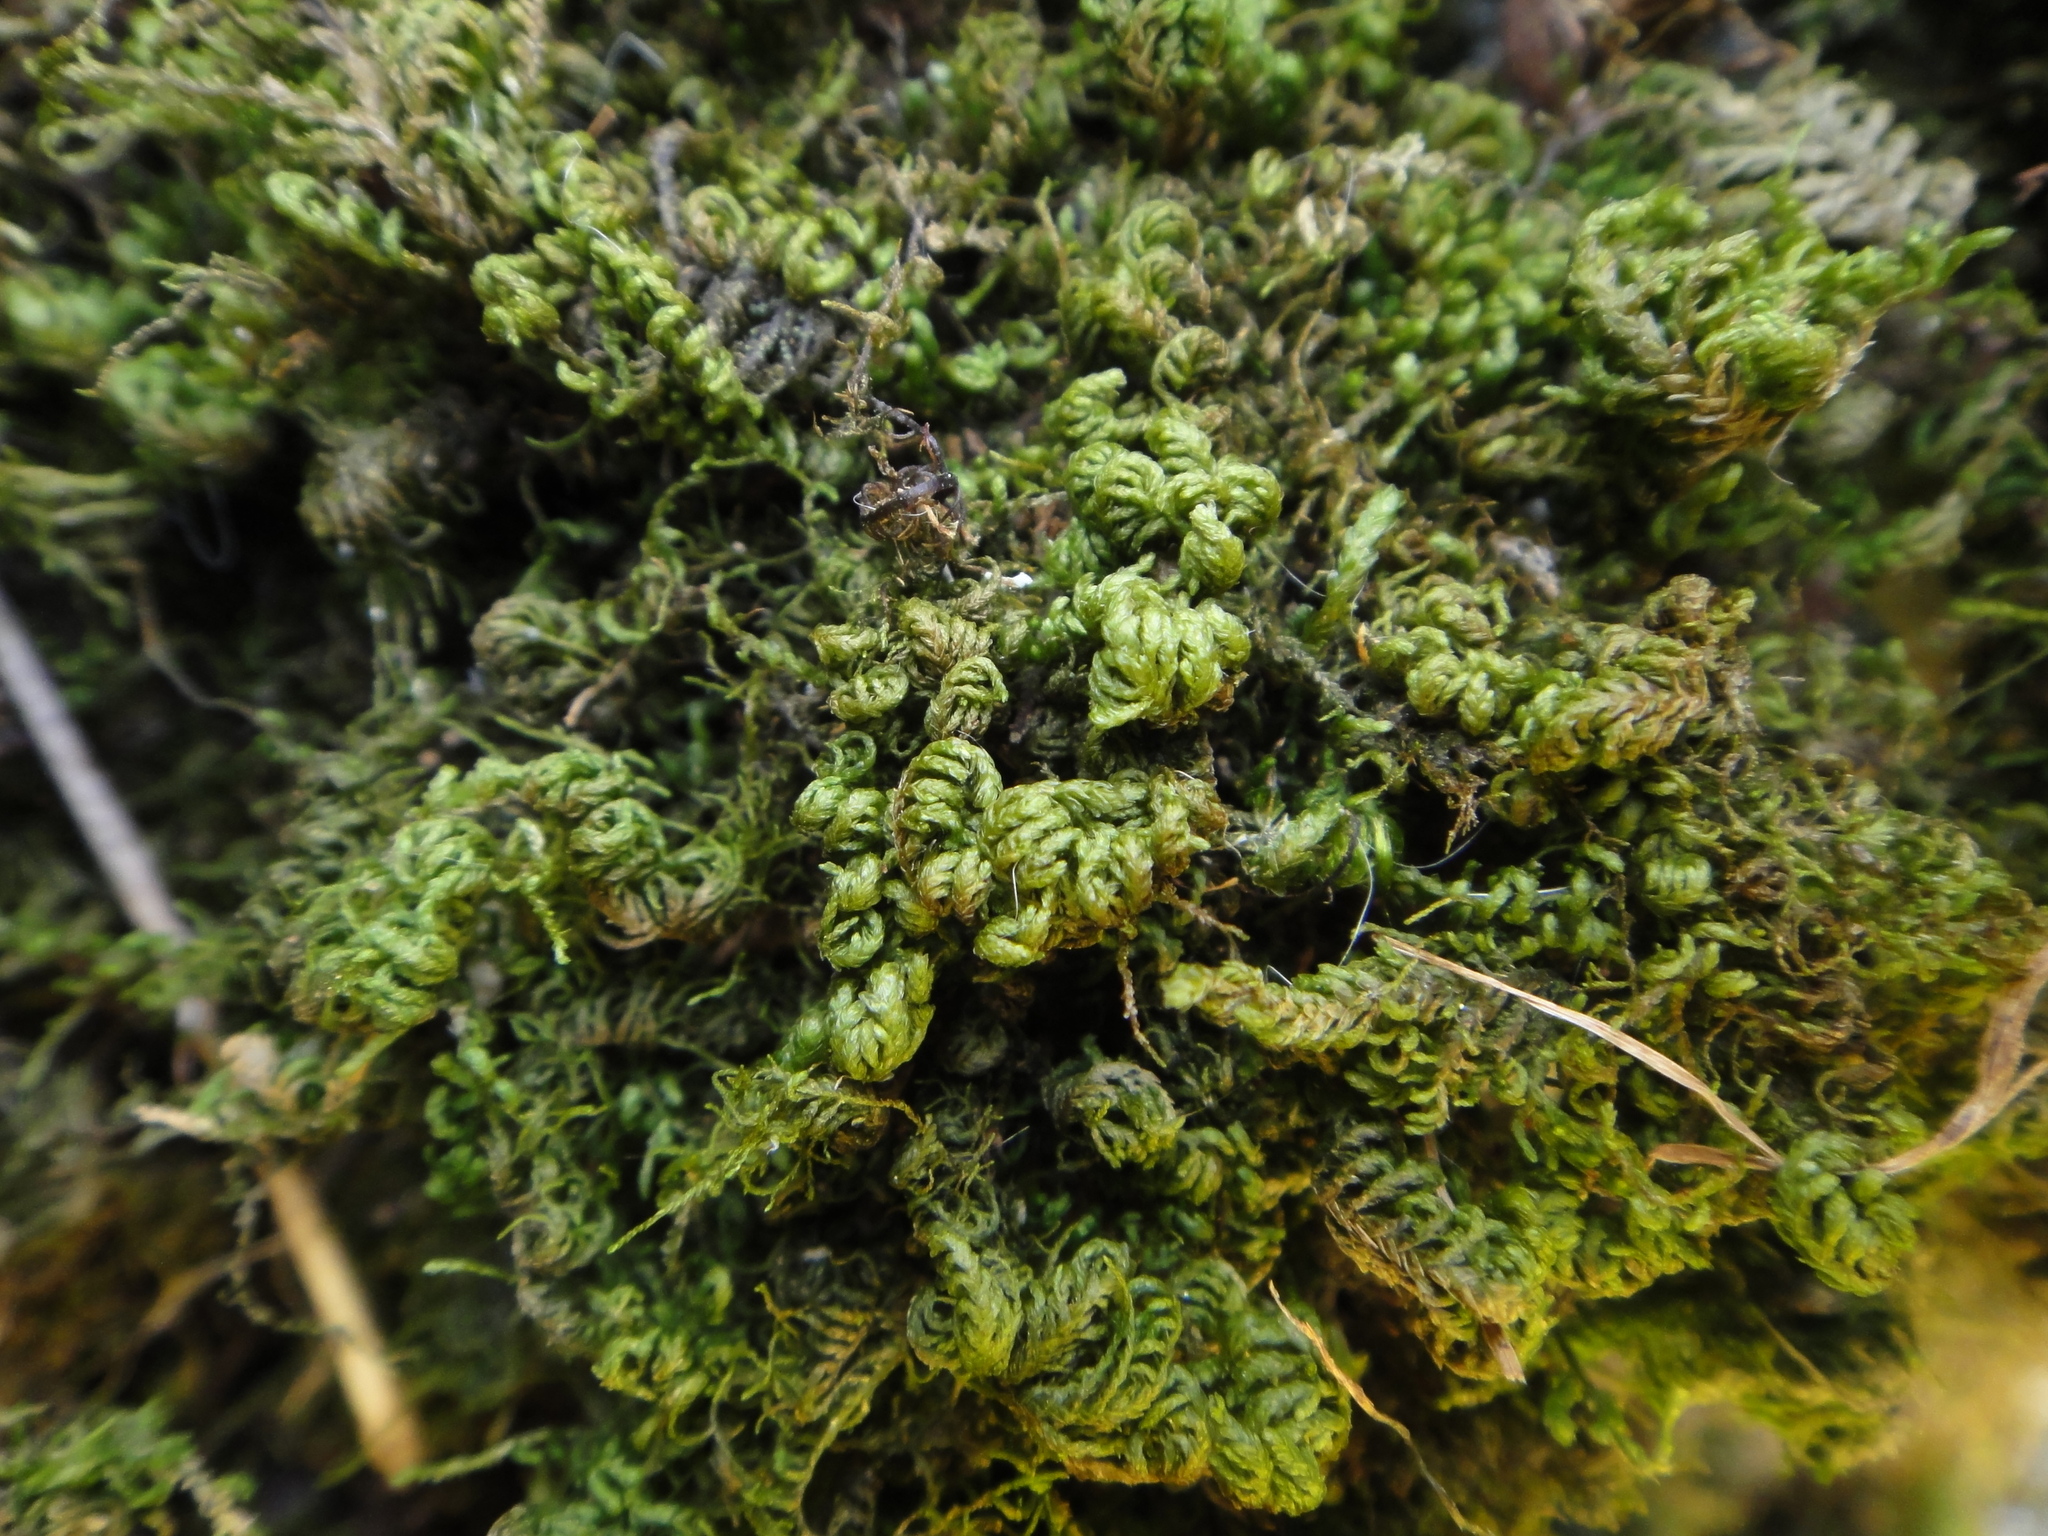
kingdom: Plantae
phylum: Bryophyta
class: Bryopsida
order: Hypnales
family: Neckeraceae
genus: Leptodon
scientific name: Leptodon smithii
